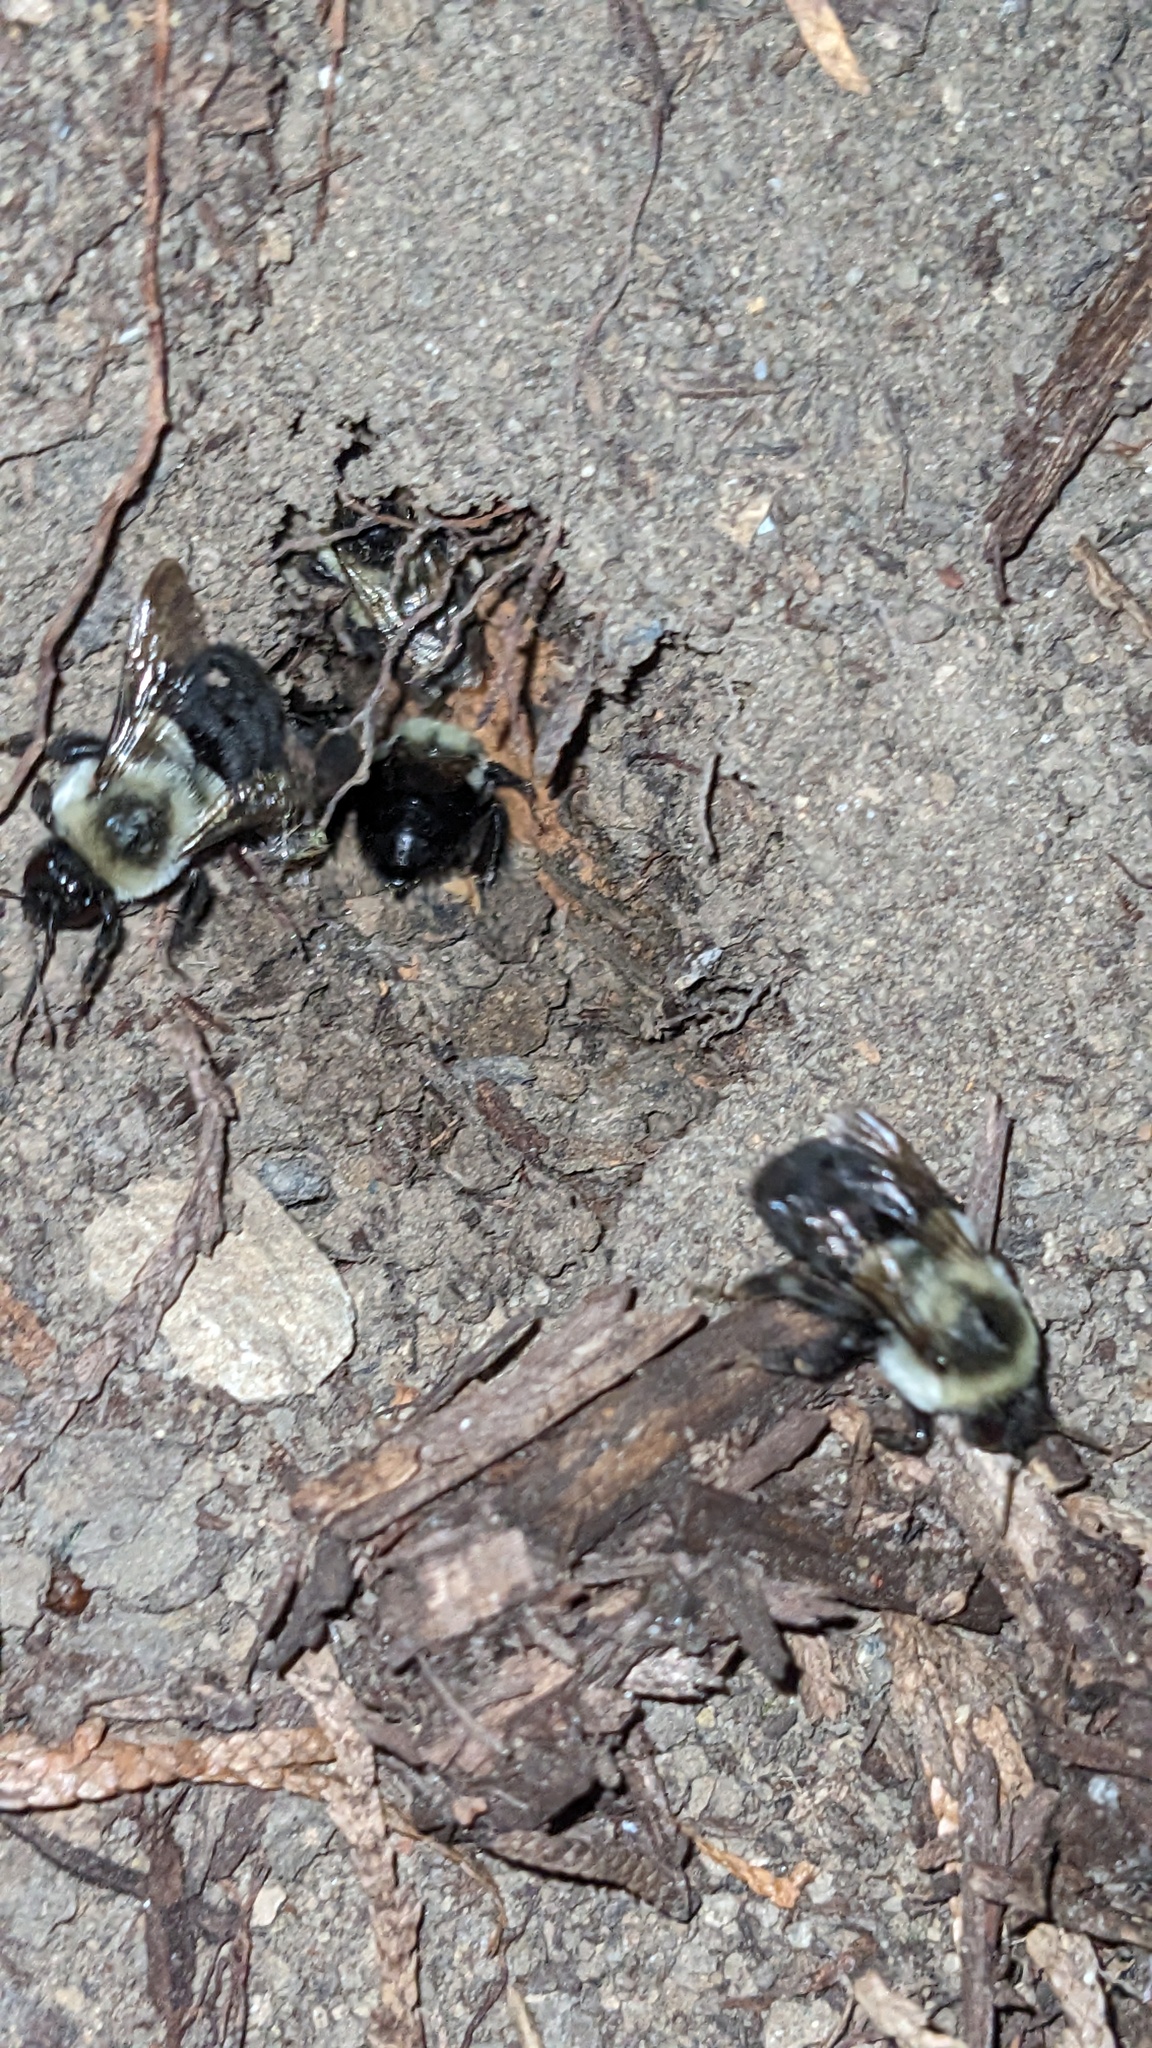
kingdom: Animalia
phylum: Arthropoda
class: Insecta
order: Hymenoptera
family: Apidae
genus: Bombus
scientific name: Bombus impatiens
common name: Common eastern bumble bee
